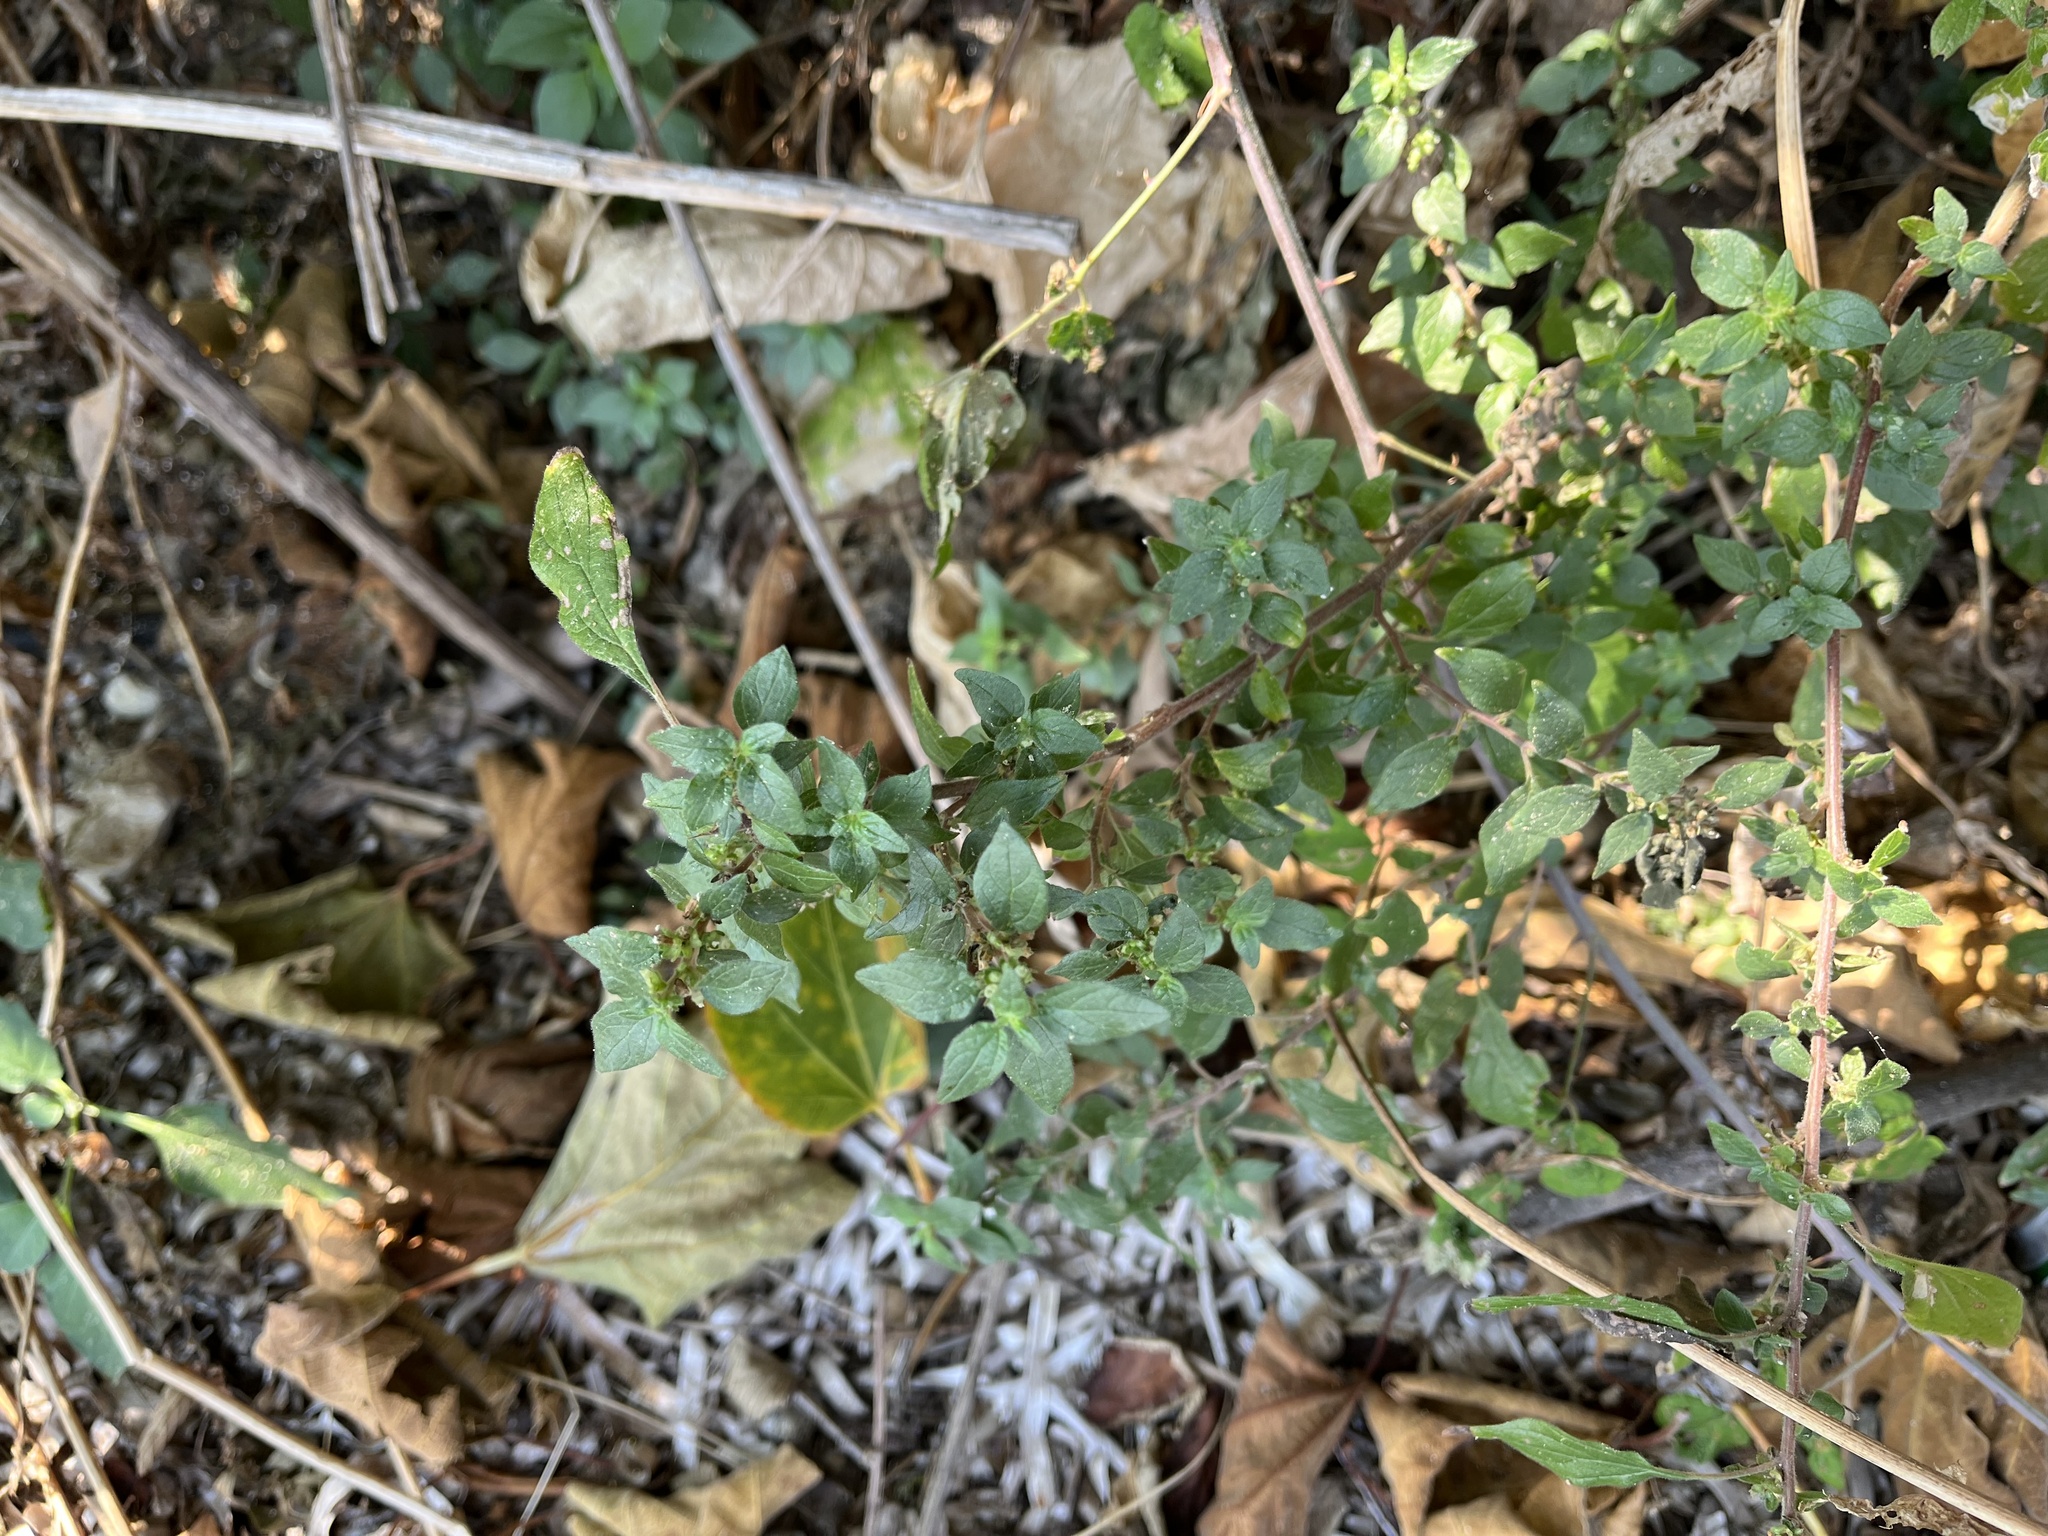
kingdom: Plantae
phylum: Tracheophyta
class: Magnoliopsida
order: Rosales
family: Urticaceae
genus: Parietaria
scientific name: Parietaria judaica
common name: Pellitory-of-the-wall
